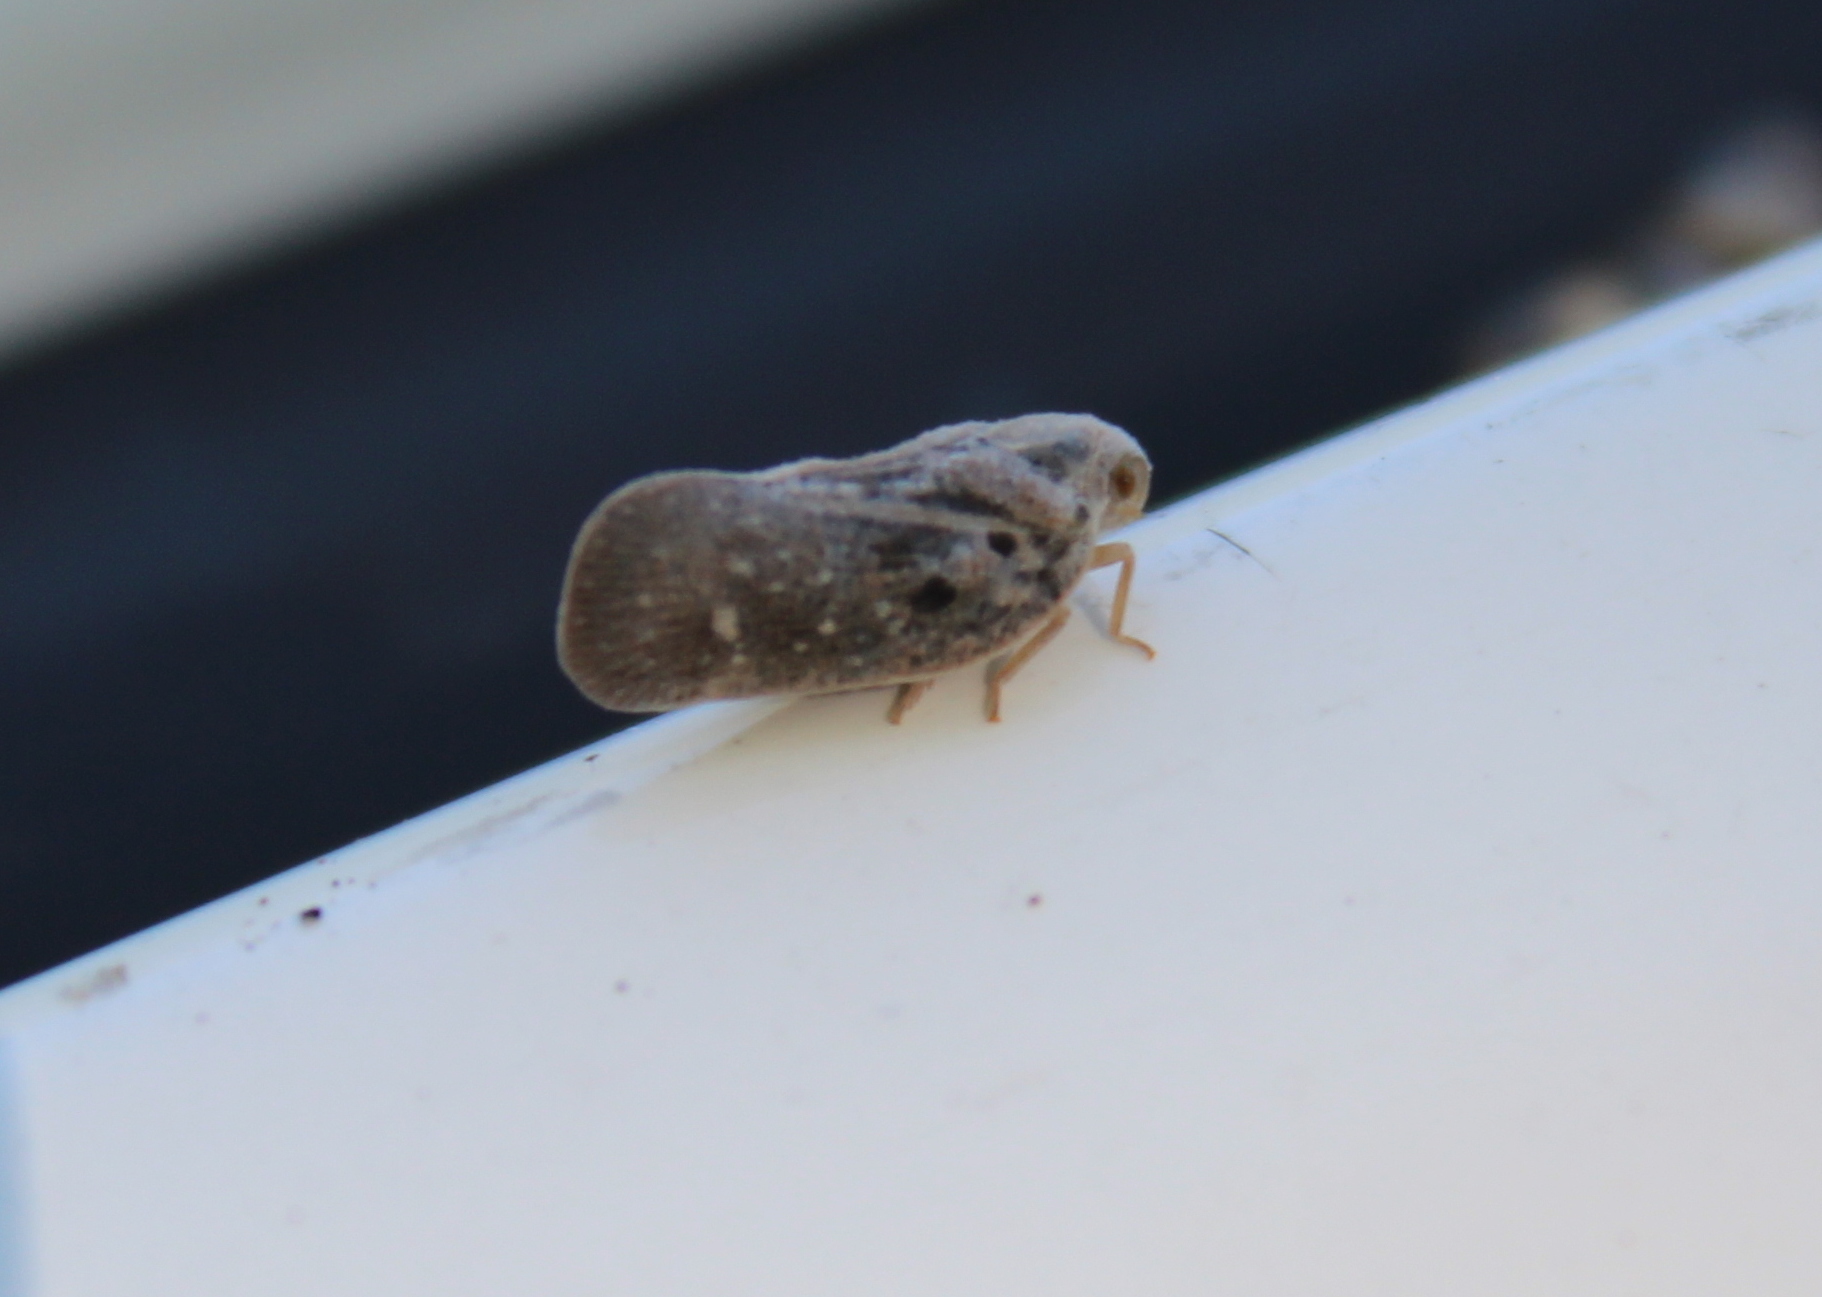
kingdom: Animalia
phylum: Arthropoda
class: Insecta
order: Hemiptera
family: Flatidae
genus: Metcalfa
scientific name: Metcalfa pruinosa
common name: Citrus flatid planthopper
